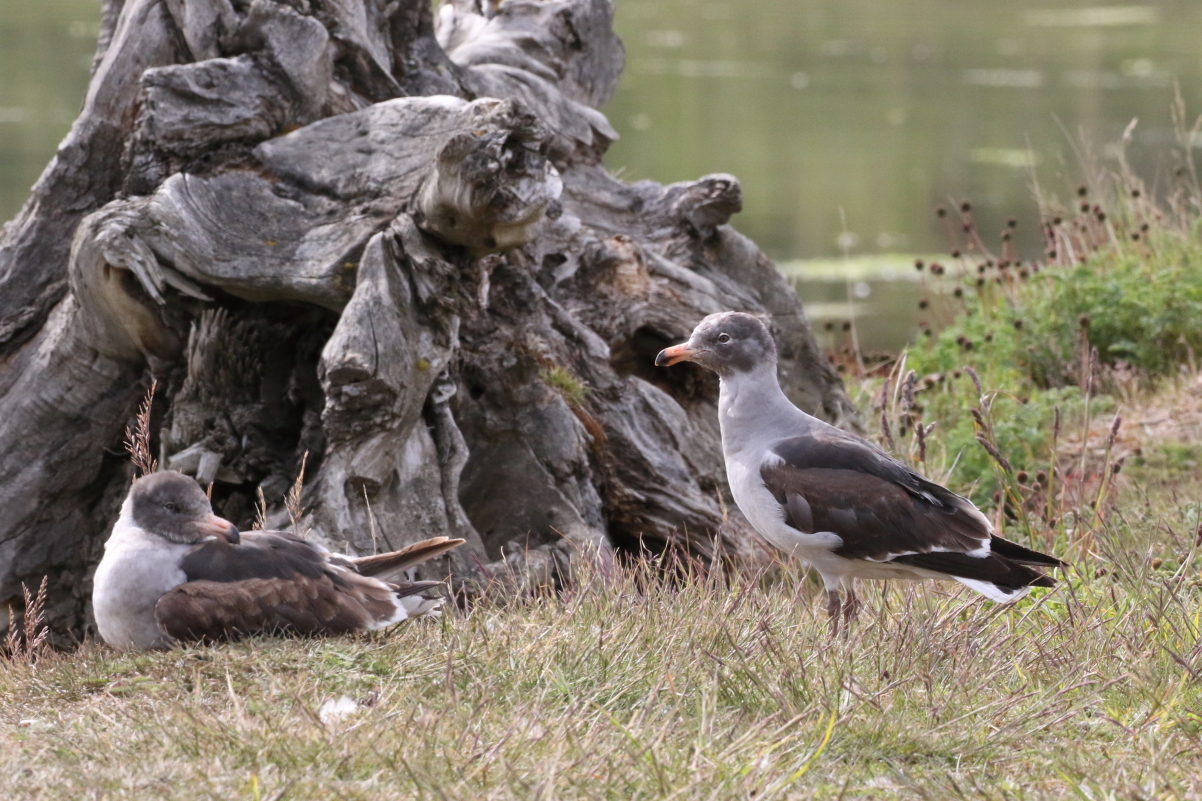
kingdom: Animalia
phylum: Chordata
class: Aves
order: Charadriiformes
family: Laridae
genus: Leucophaeus
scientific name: Leucophaeus scoresbii
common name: Dolphin gull
